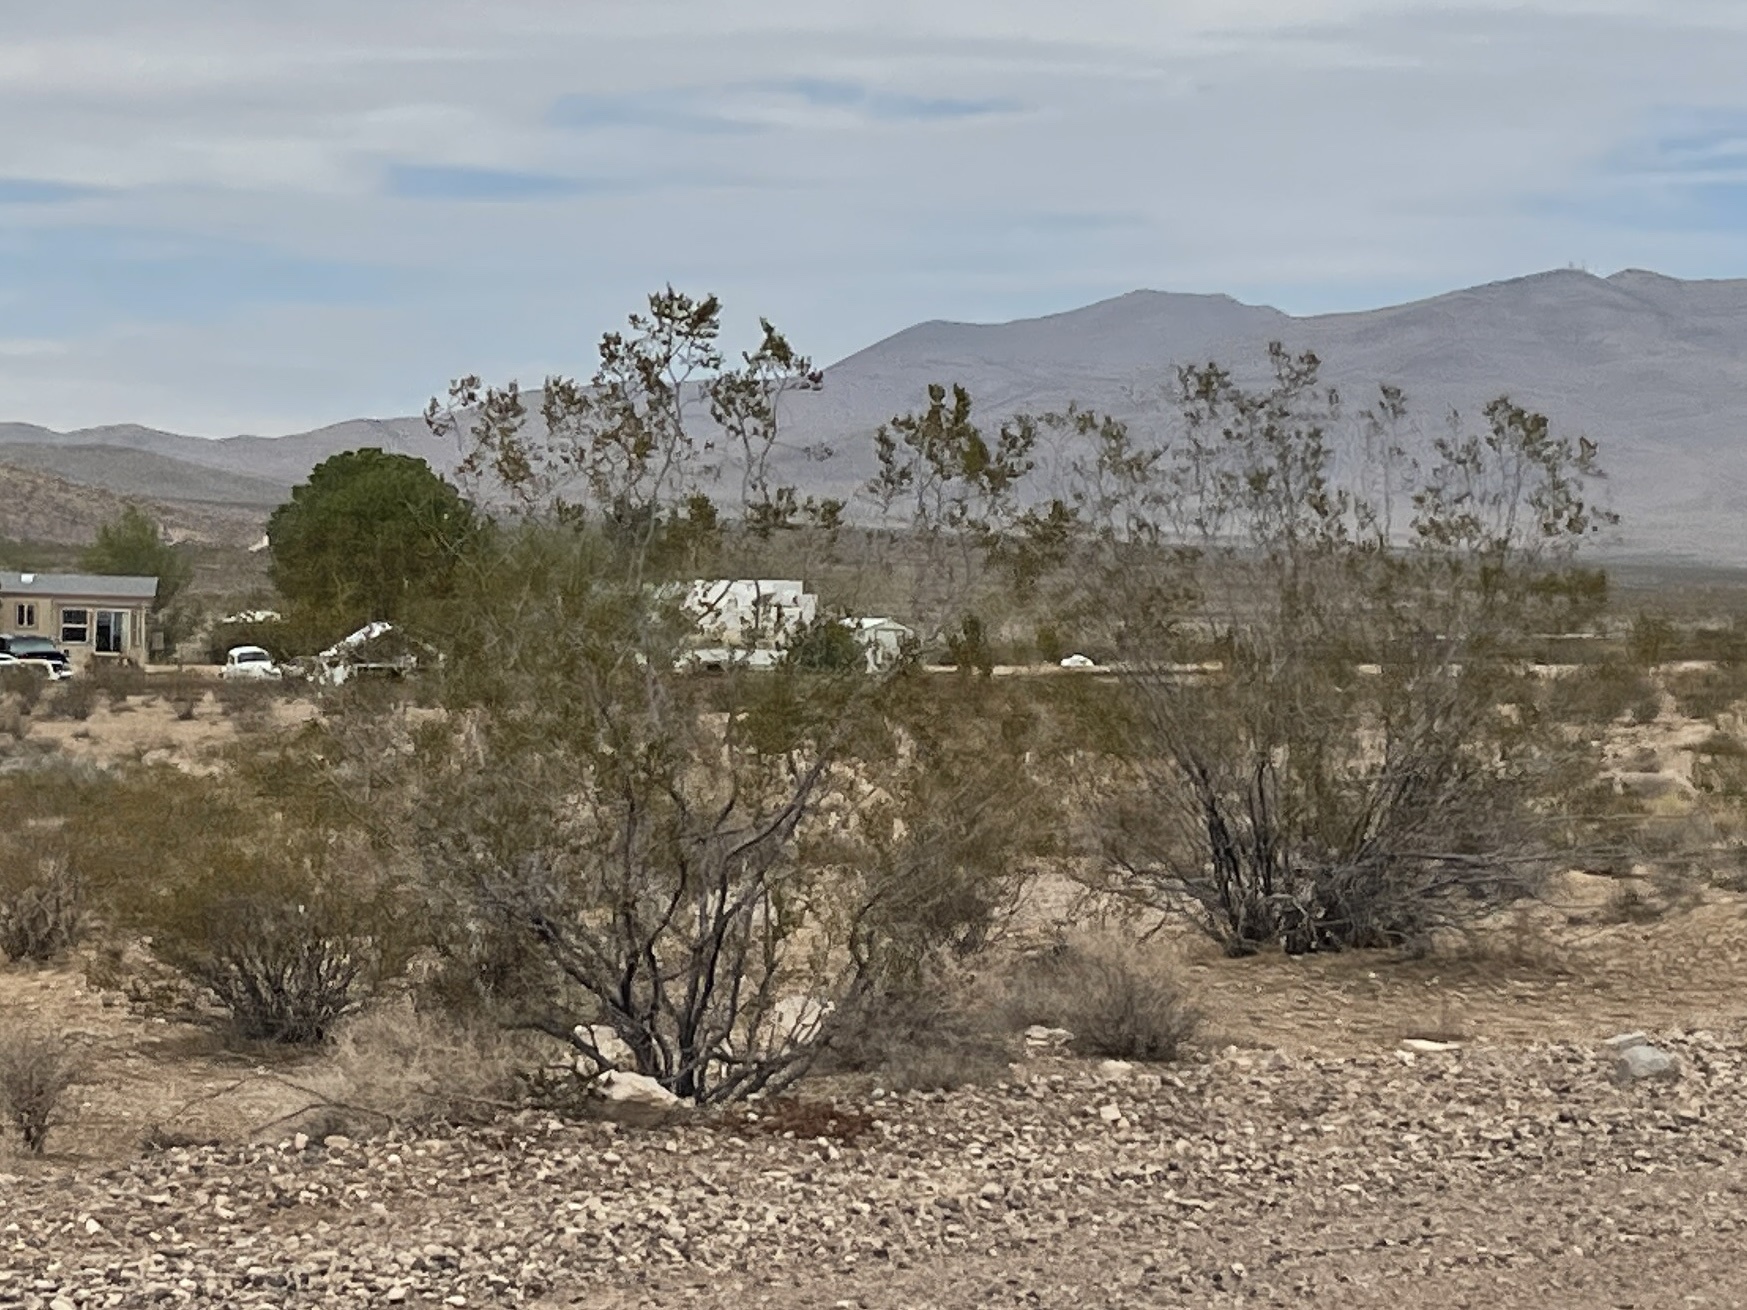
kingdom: Plantae
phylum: Tracheophyta
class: Magnoliopsida
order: Zygophyllales
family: Zygophyllaceae
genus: Larrea
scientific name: Larrea tridentata
